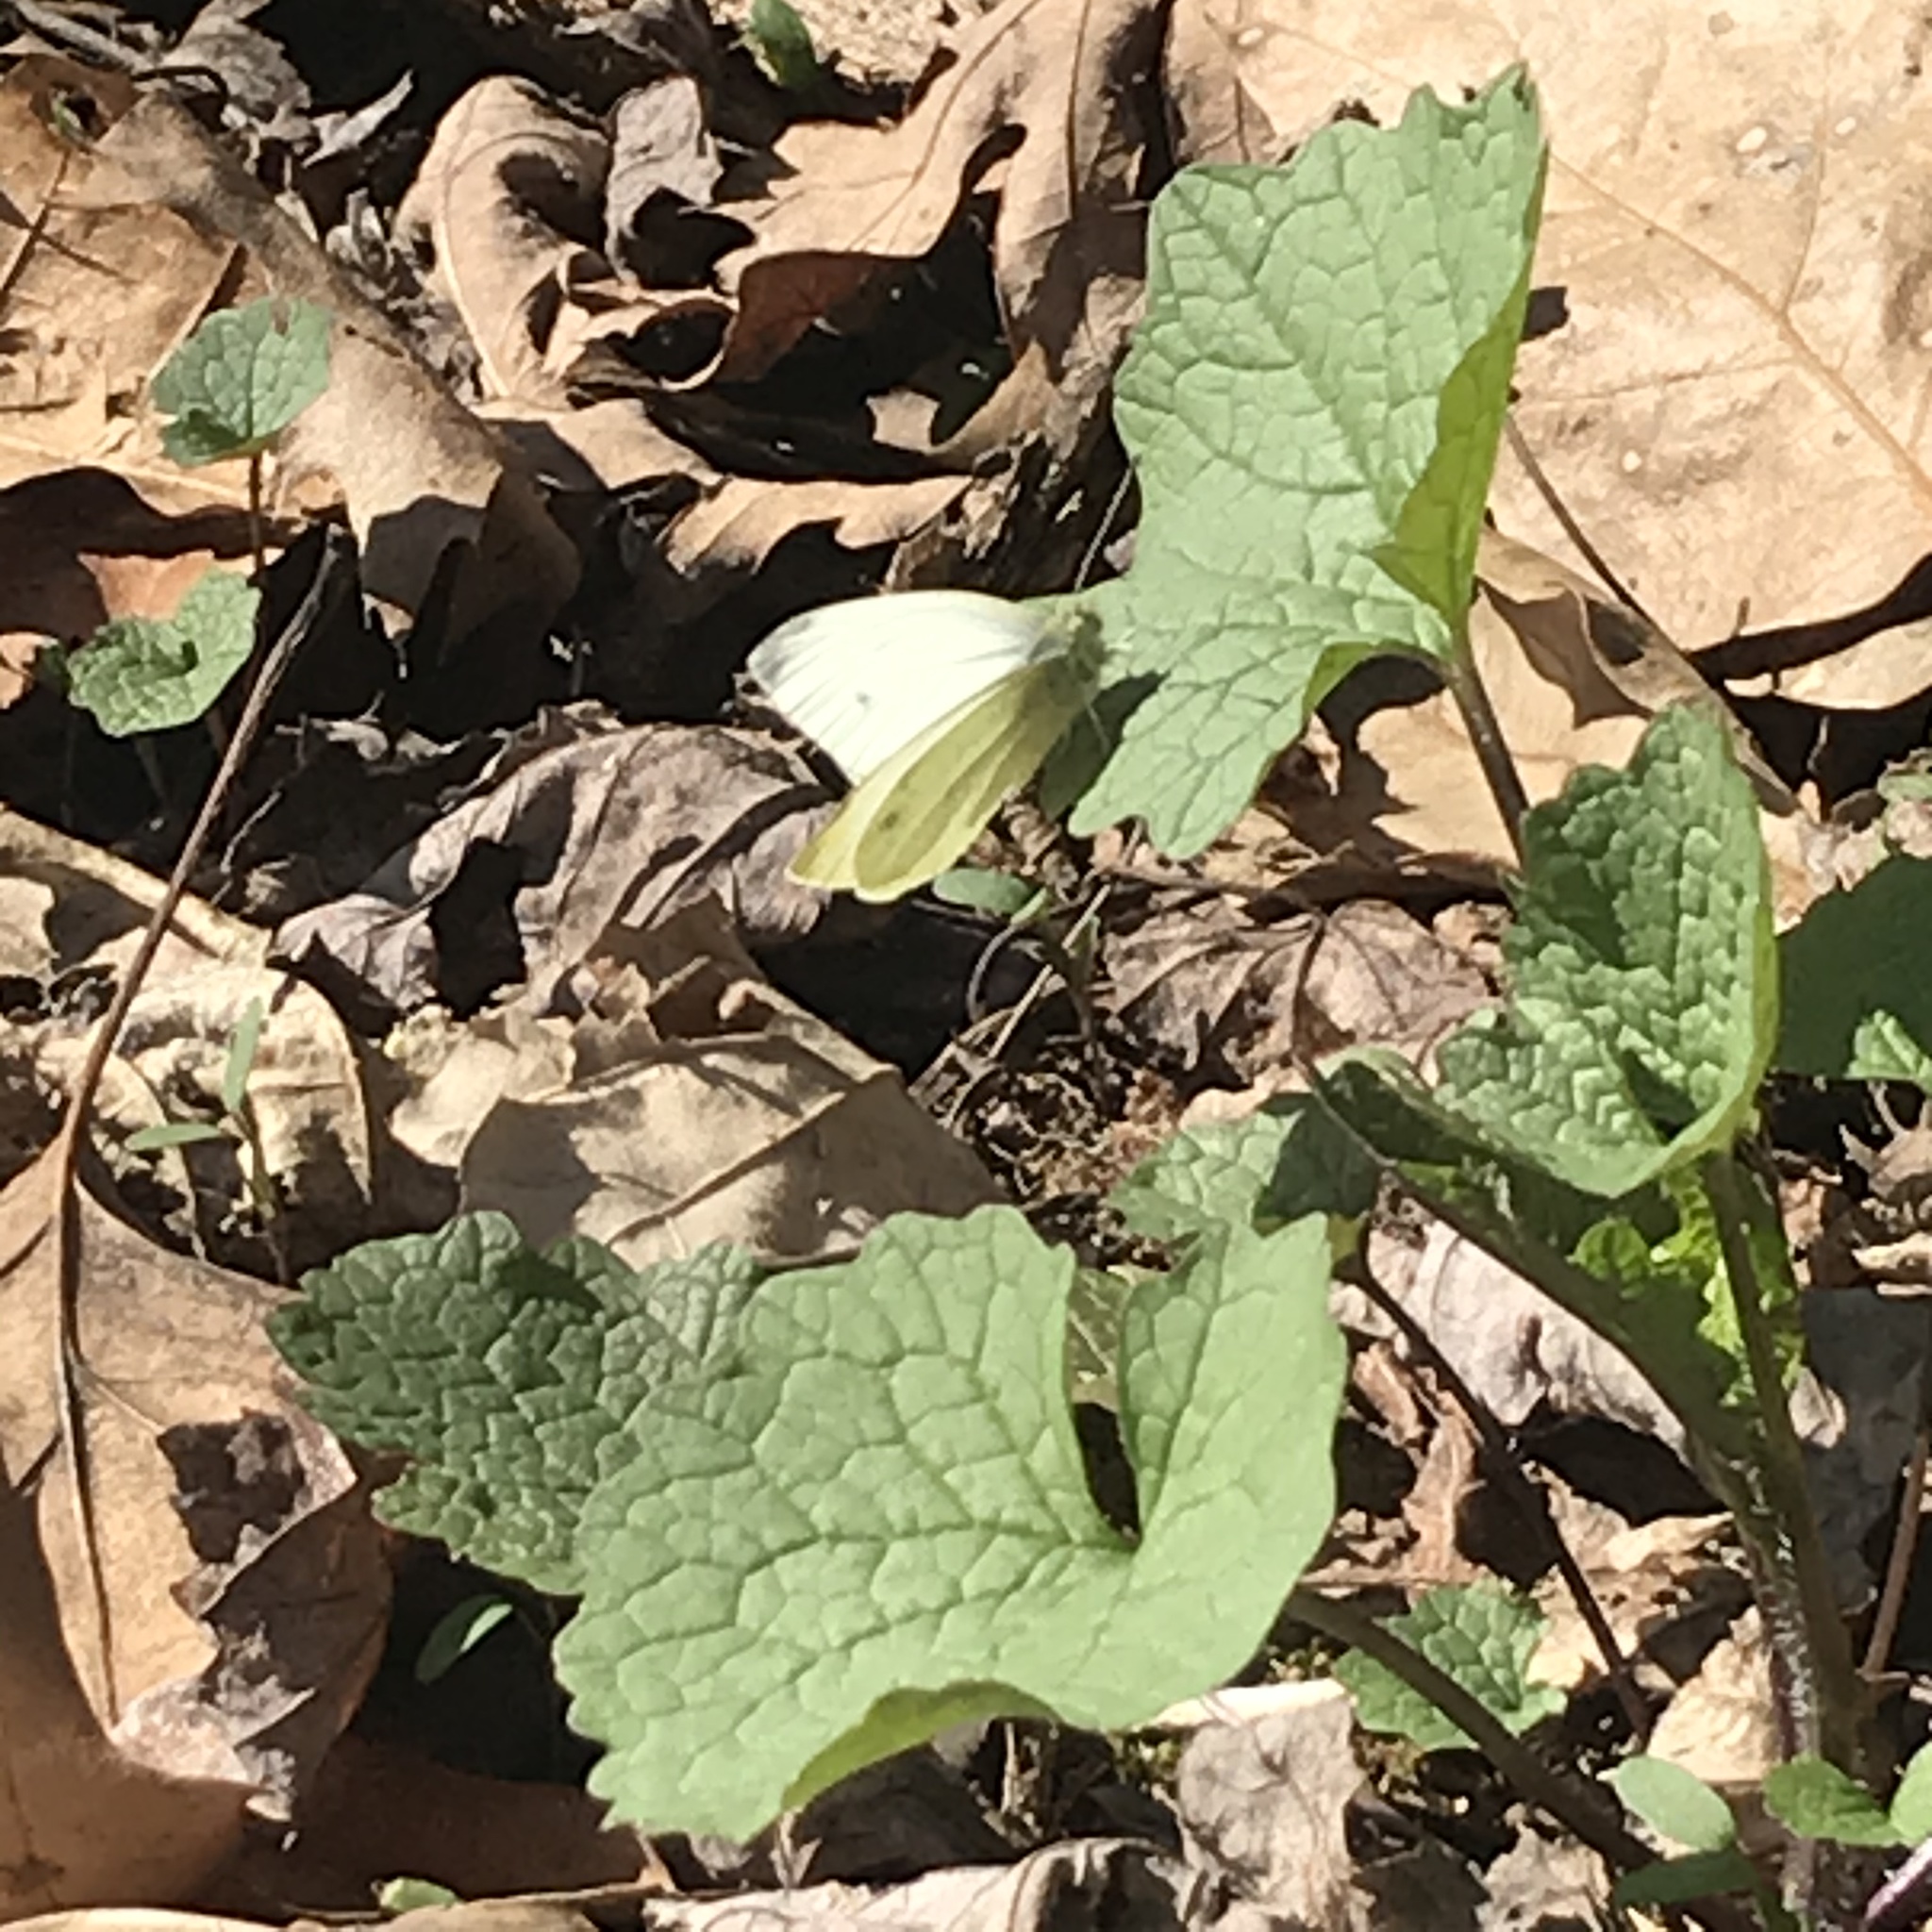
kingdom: Animalia
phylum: Arthropoda
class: Insecta
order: Lepidoptera
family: Pieridae
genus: Pieris
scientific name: Pieris rapae
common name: Small white
